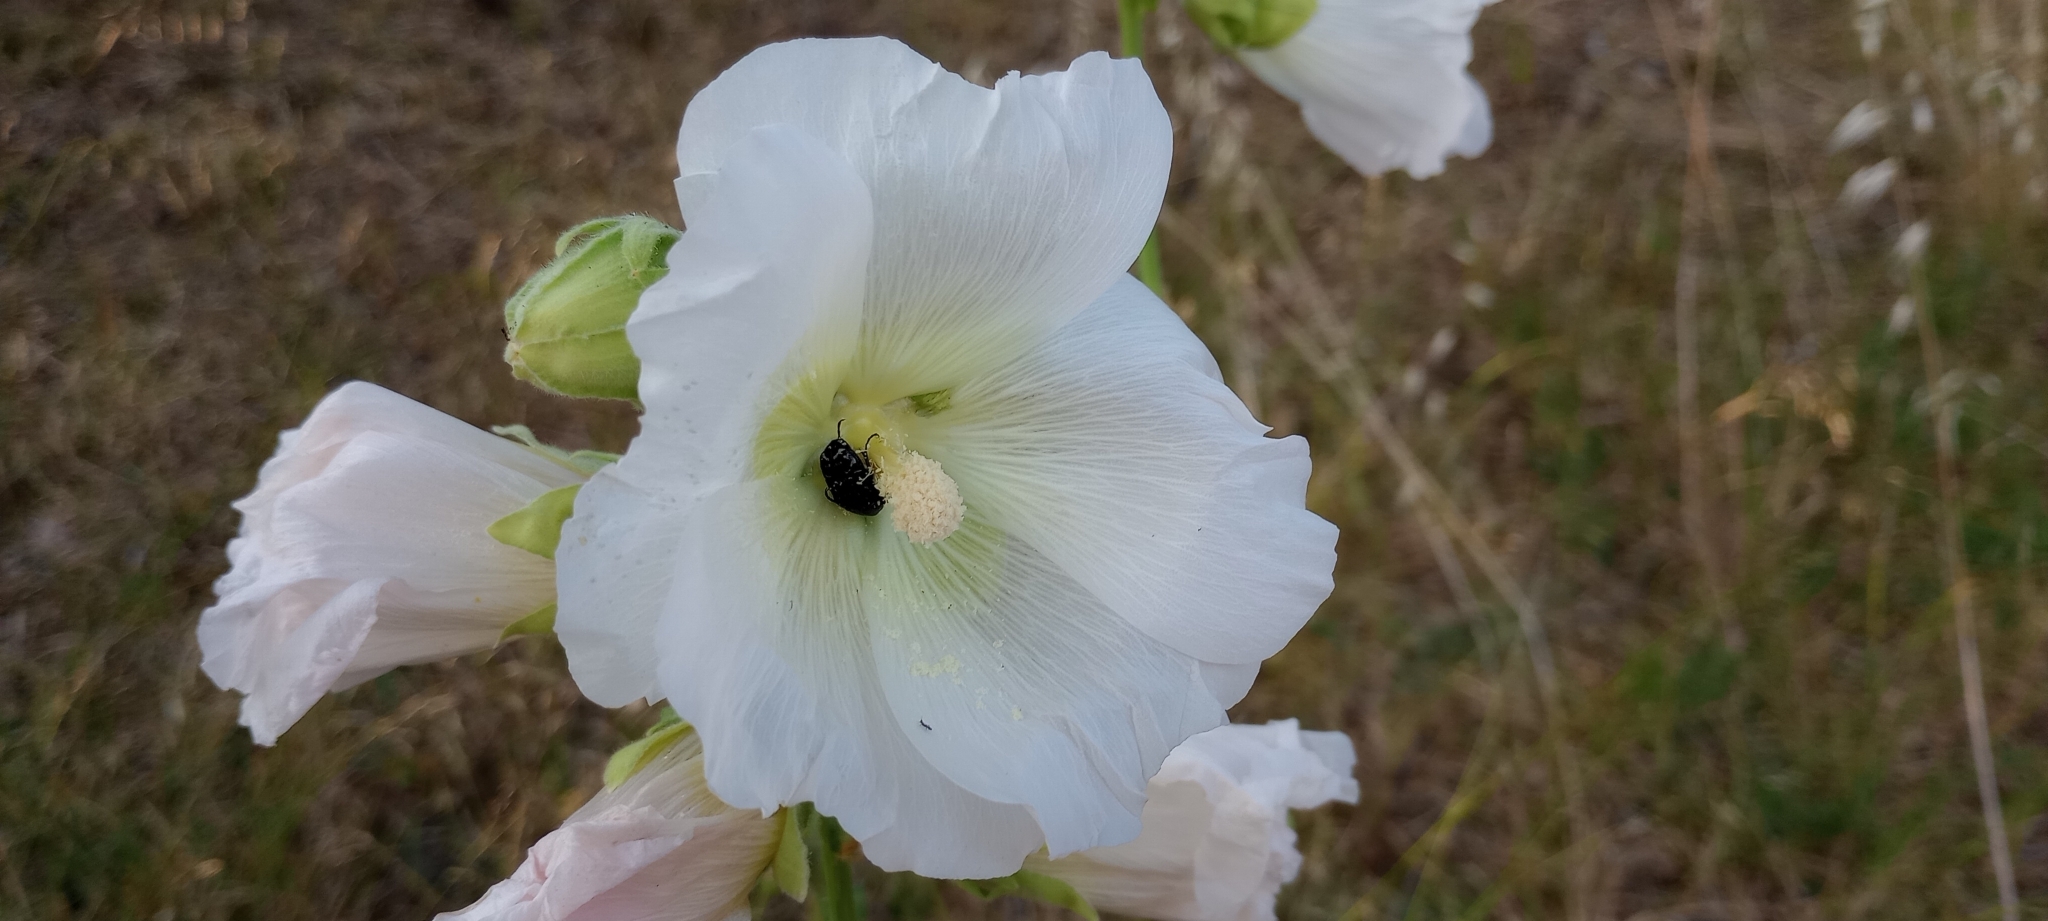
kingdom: Plantae
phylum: Tracheophyta
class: Magnoliopsida
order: Malvales
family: Malvaceae
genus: Alcea
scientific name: Alcea rosea
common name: Hollyhock
